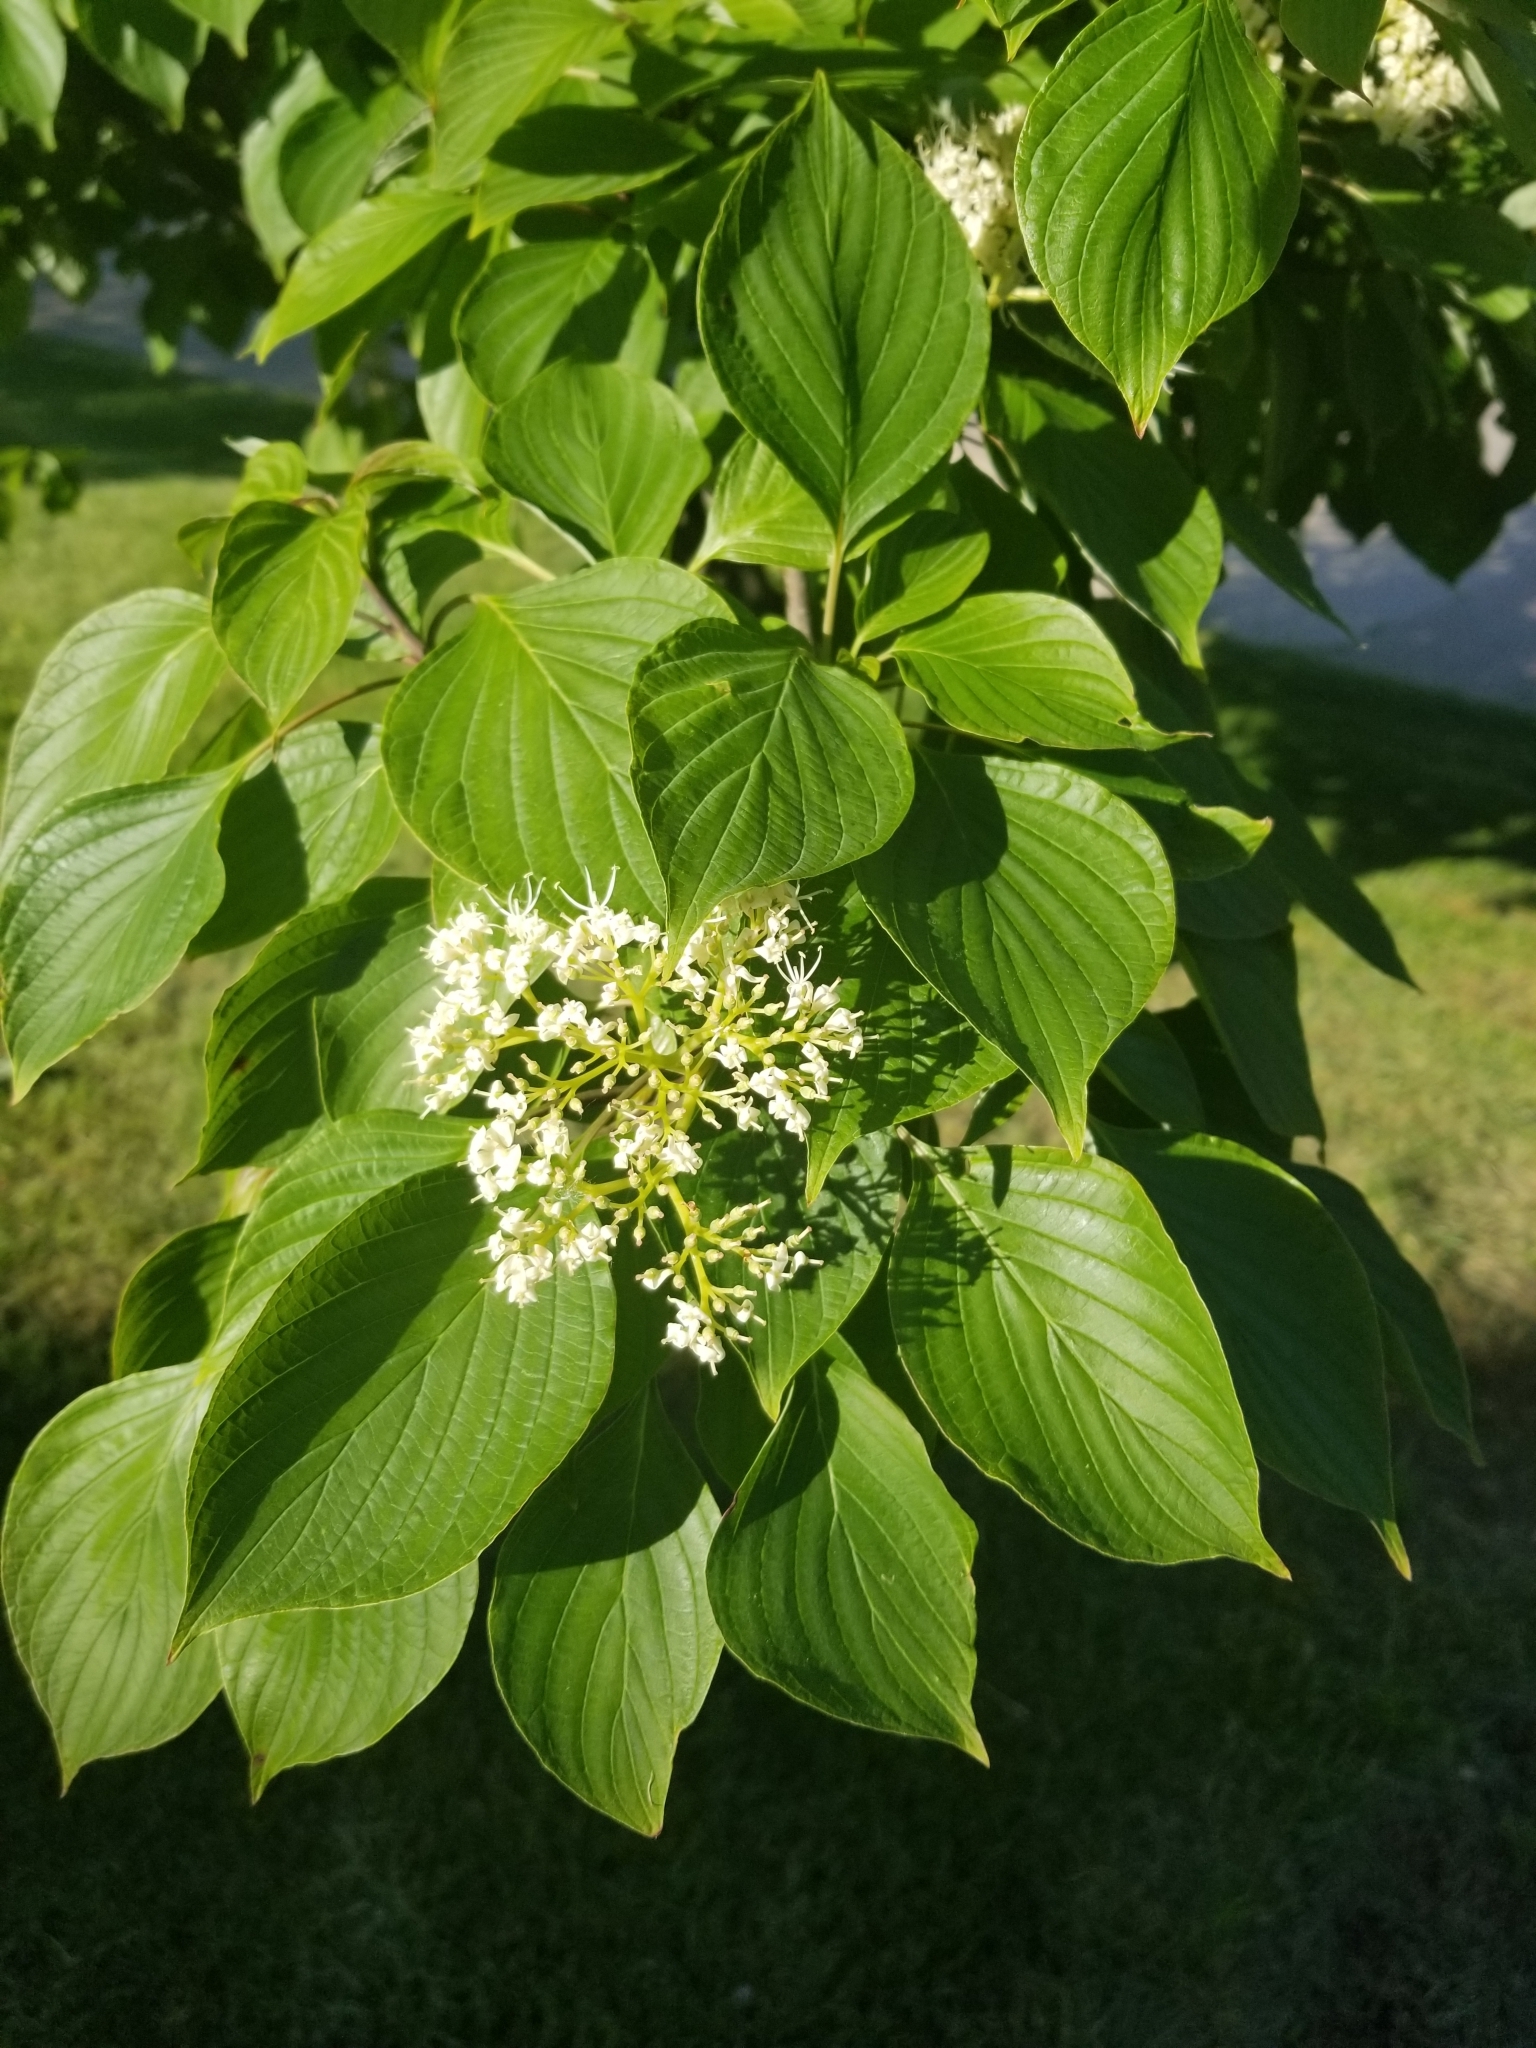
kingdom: Plantae
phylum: Tracheophyta
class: Magnoliopsida
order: Cornales
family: Cornaceae
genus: Cornus
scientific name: Cornus alternifolia
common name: Pagoda dogwood
